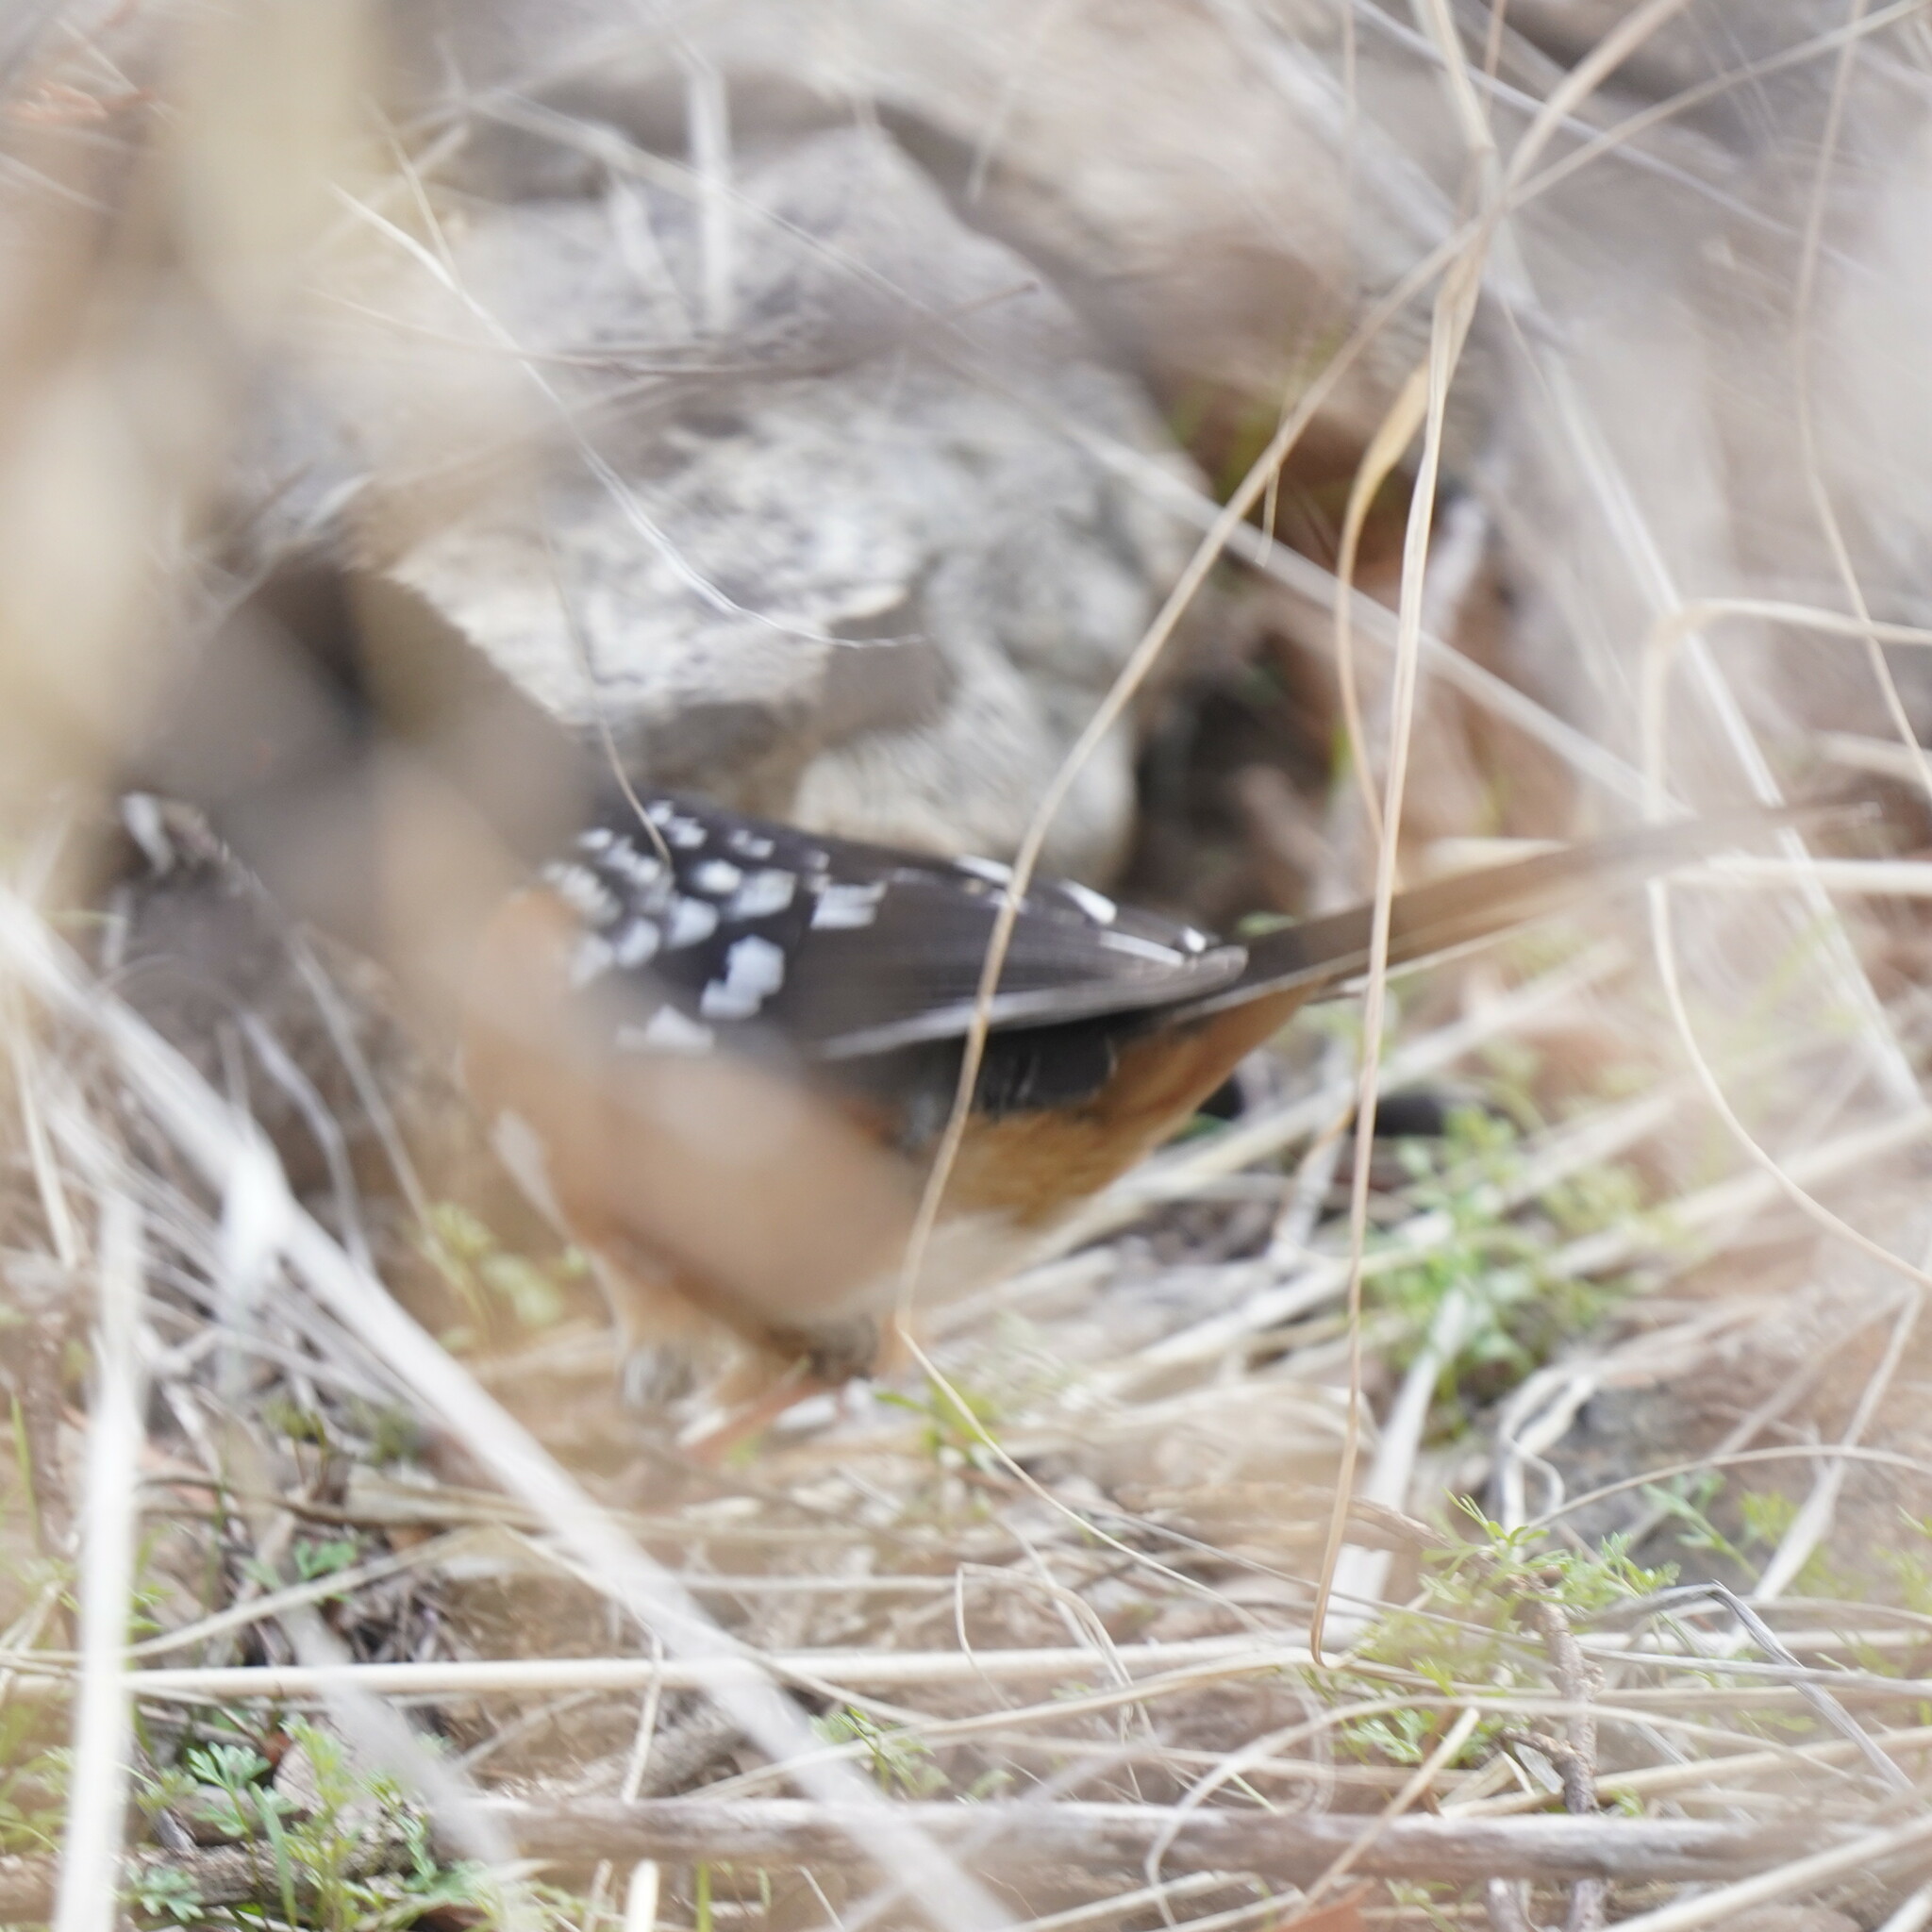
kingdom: Animalia
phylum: Chordata
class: Aves
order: Passeriformes
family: Passerellidae
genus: Pipilo
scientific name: Pipilo maculatus
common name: Spotted towhee
